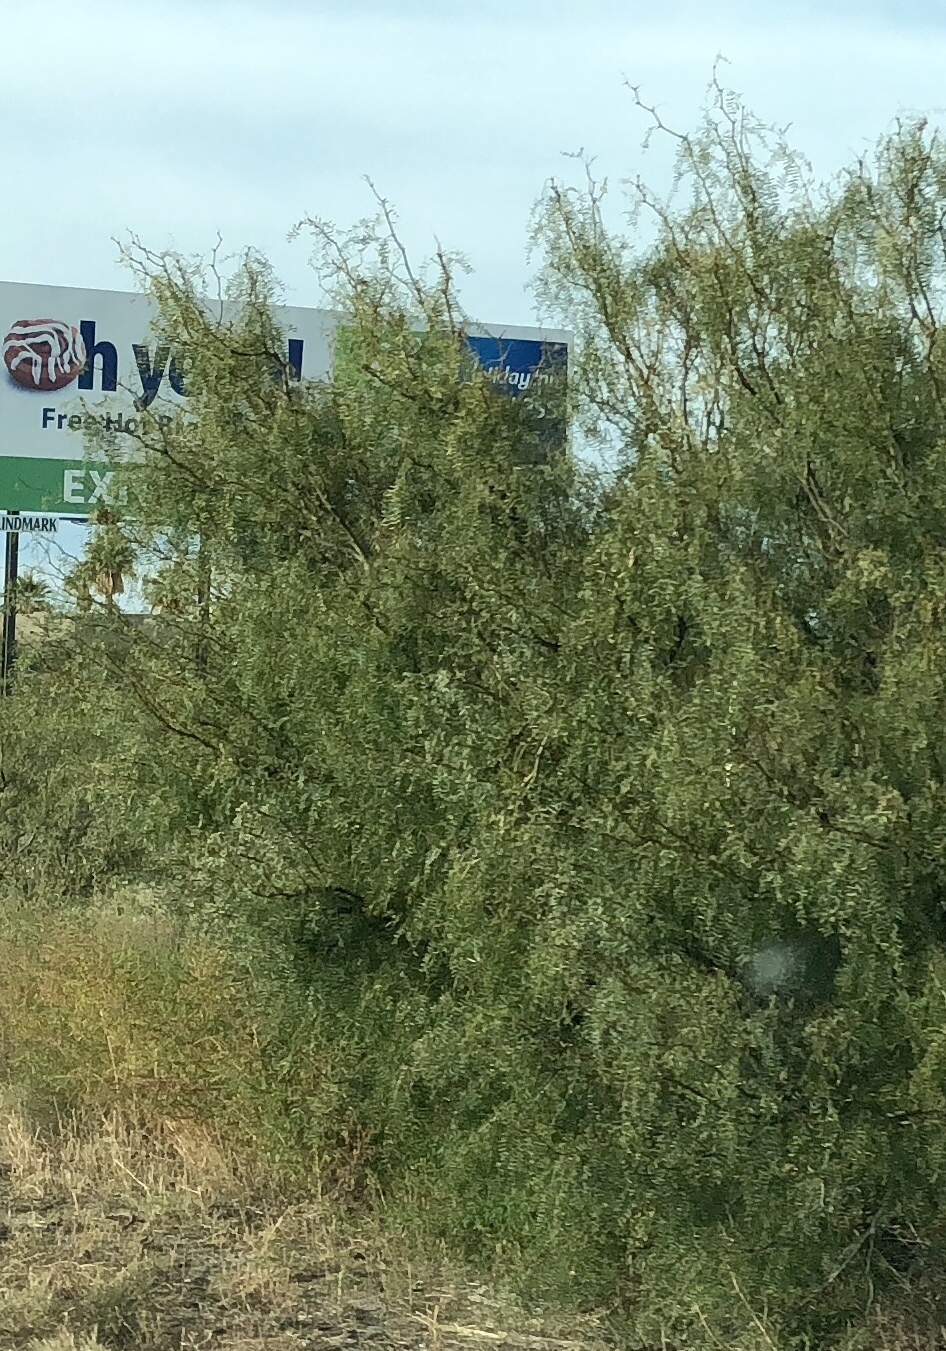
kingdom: Plantae
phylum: Tracheophyta
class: Magnoliopsida
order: Fabales
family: Fabaceae
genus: Prosopis
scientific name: Prosopis glandulosa
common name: Honey mesquite
